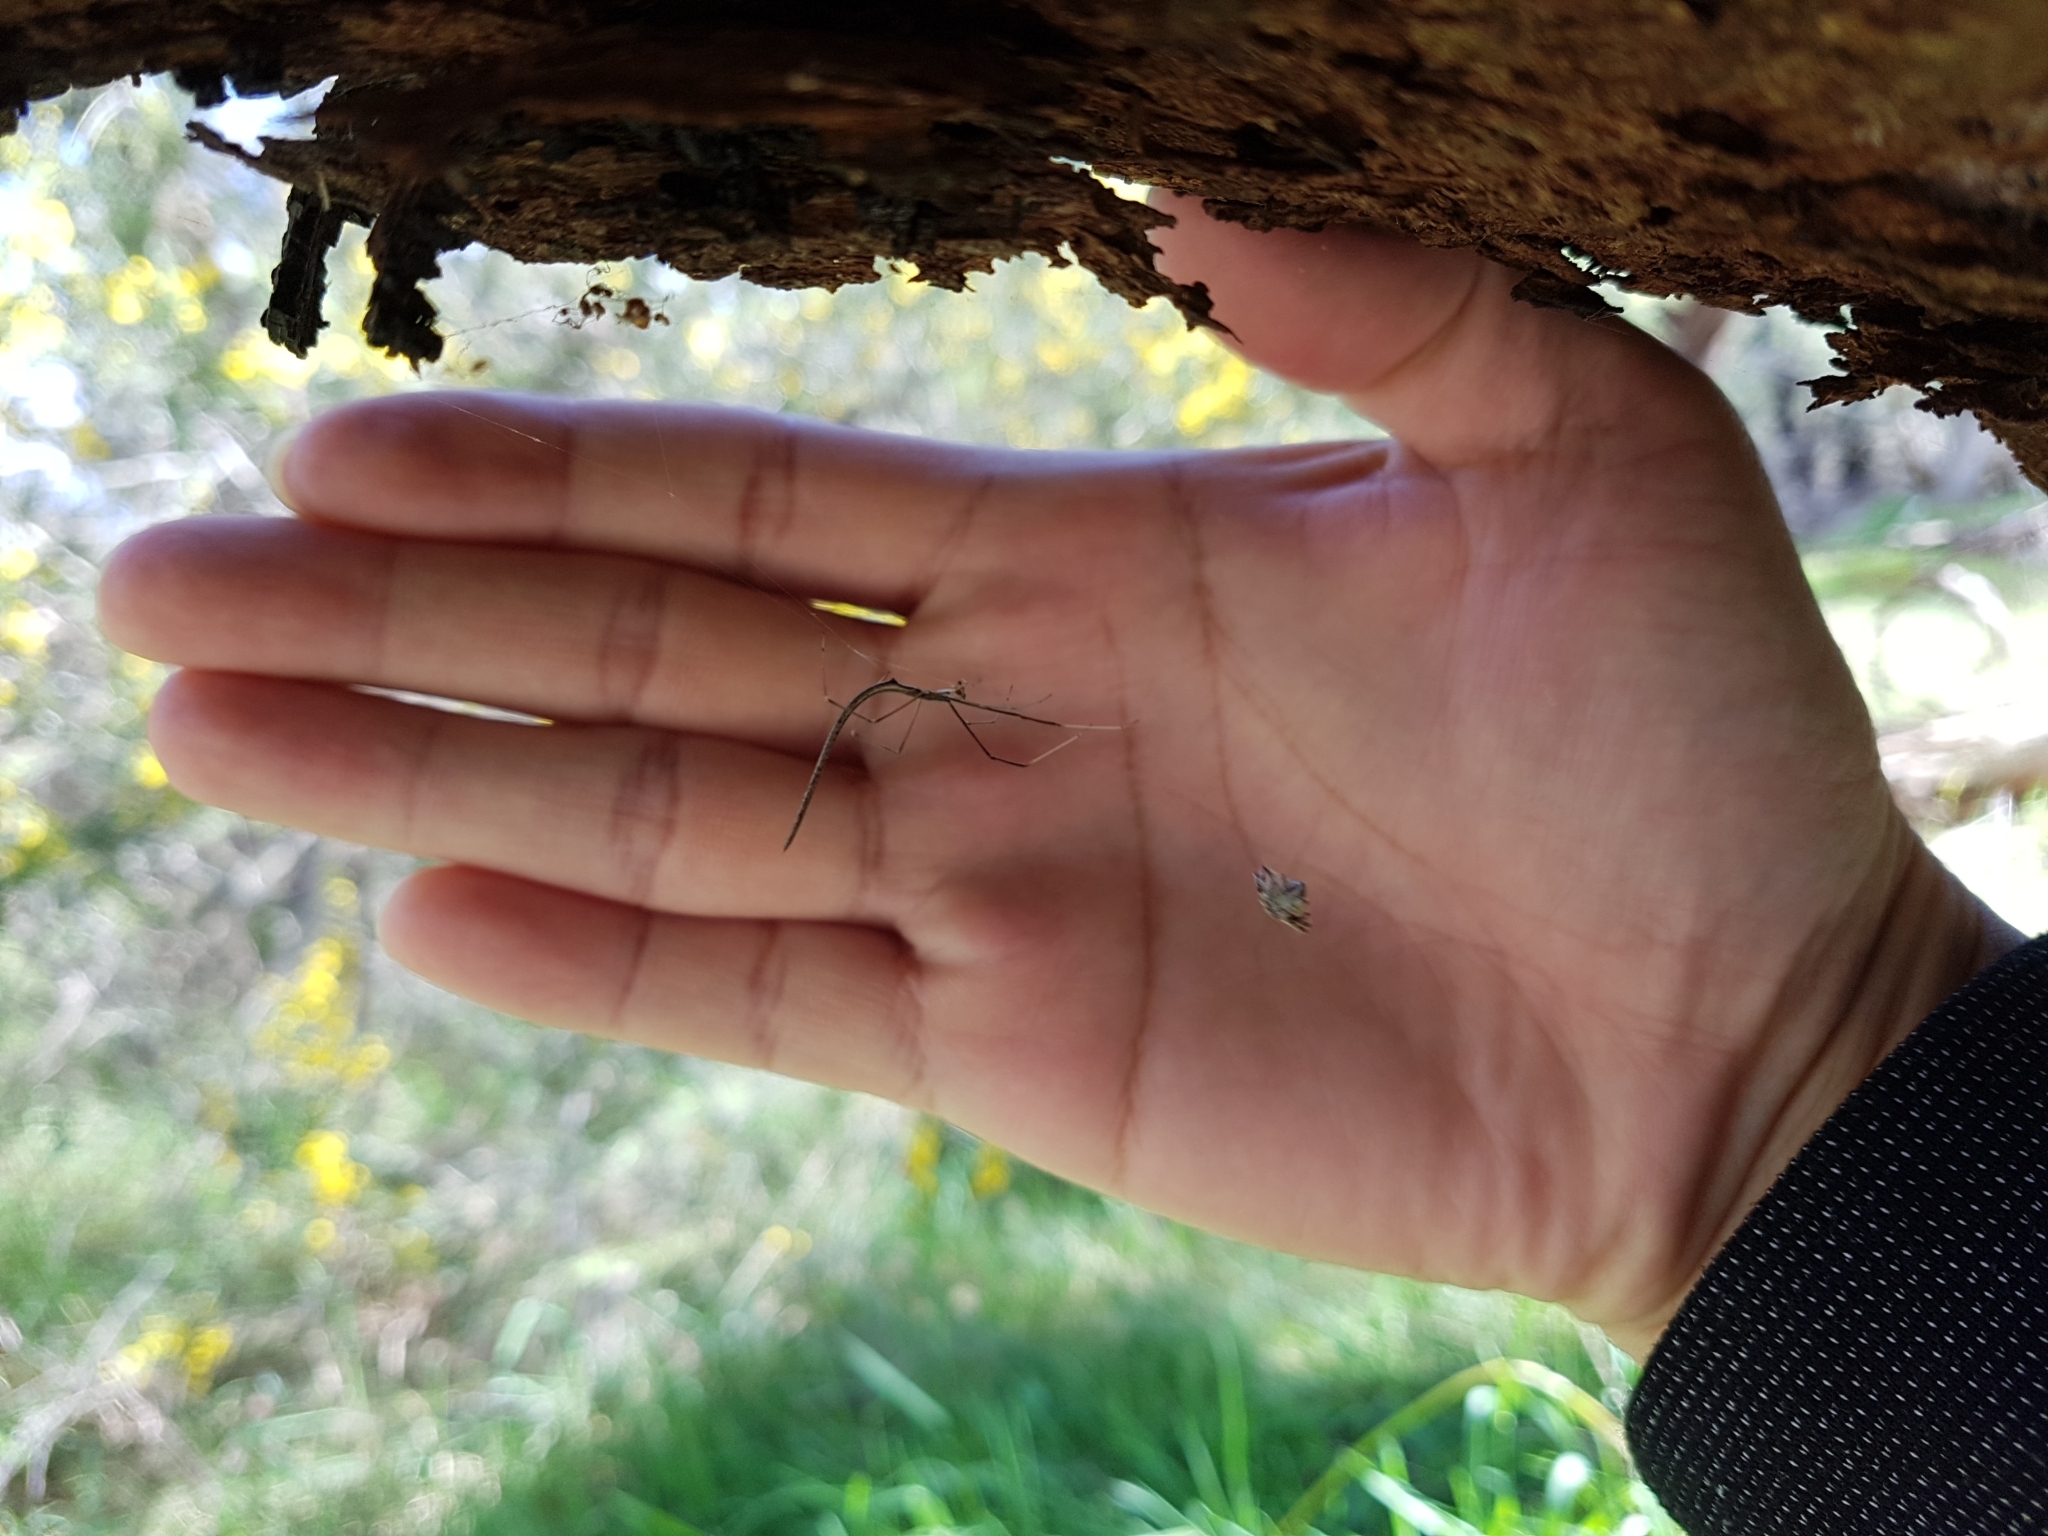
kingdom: Animalia
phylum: Arthropoda
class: Arachnida
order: Araneae
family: Theridiidae
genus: Ariamnes
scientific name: Ariamnes colubrinus
